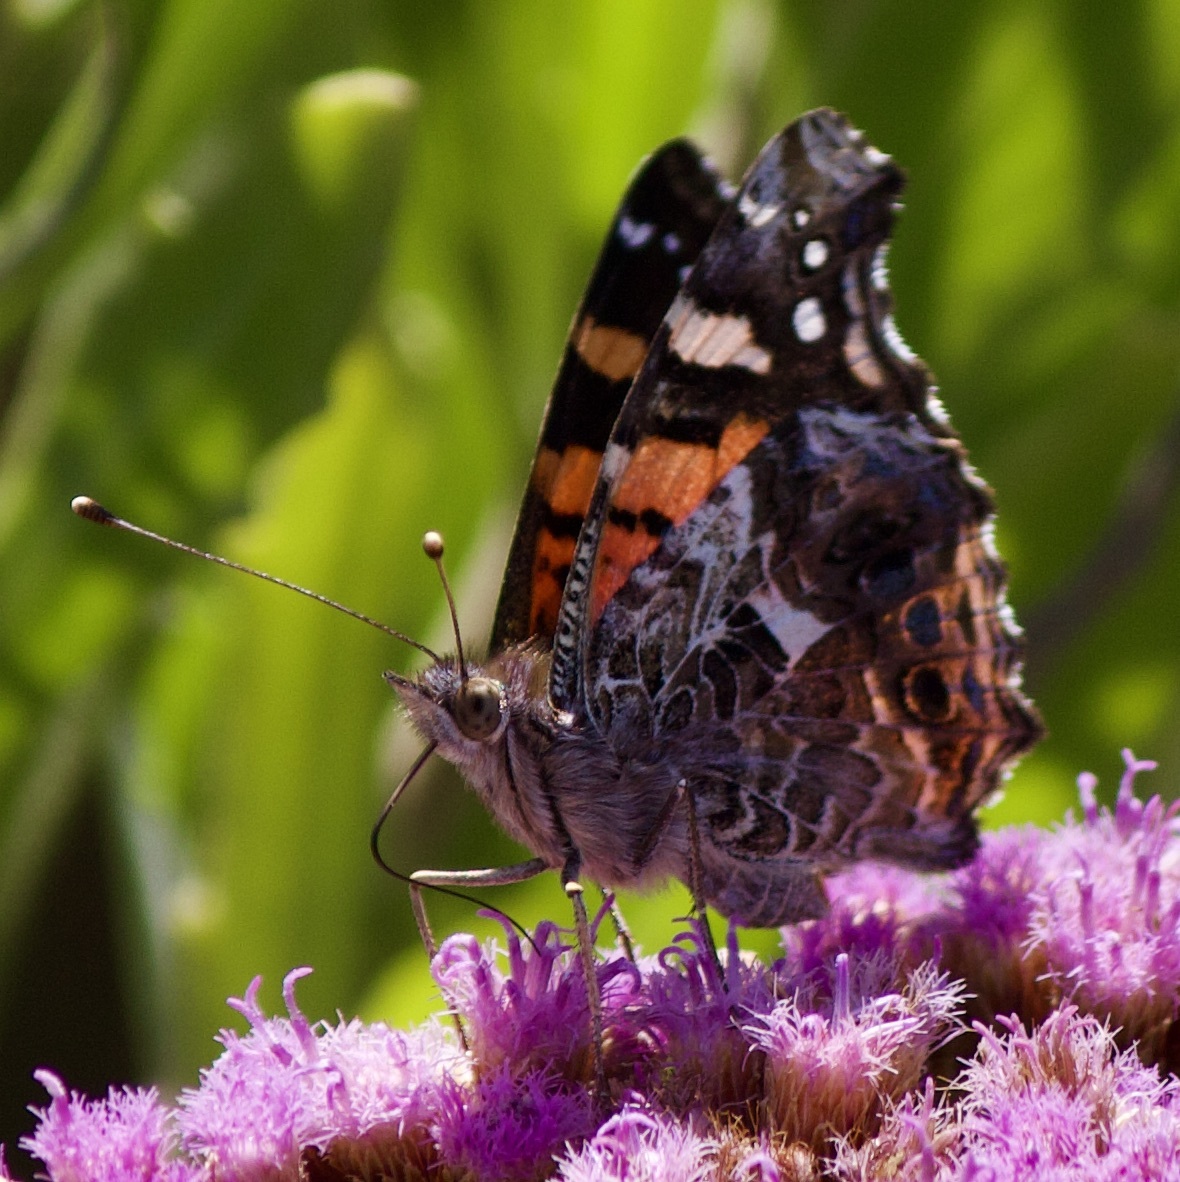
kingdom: Animalia
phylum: Arthropoda
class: Insecta
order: Lepidoptera
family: Nymphalidae
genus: Vanessa
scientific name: Vanessa carye
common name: Subtropical lady
